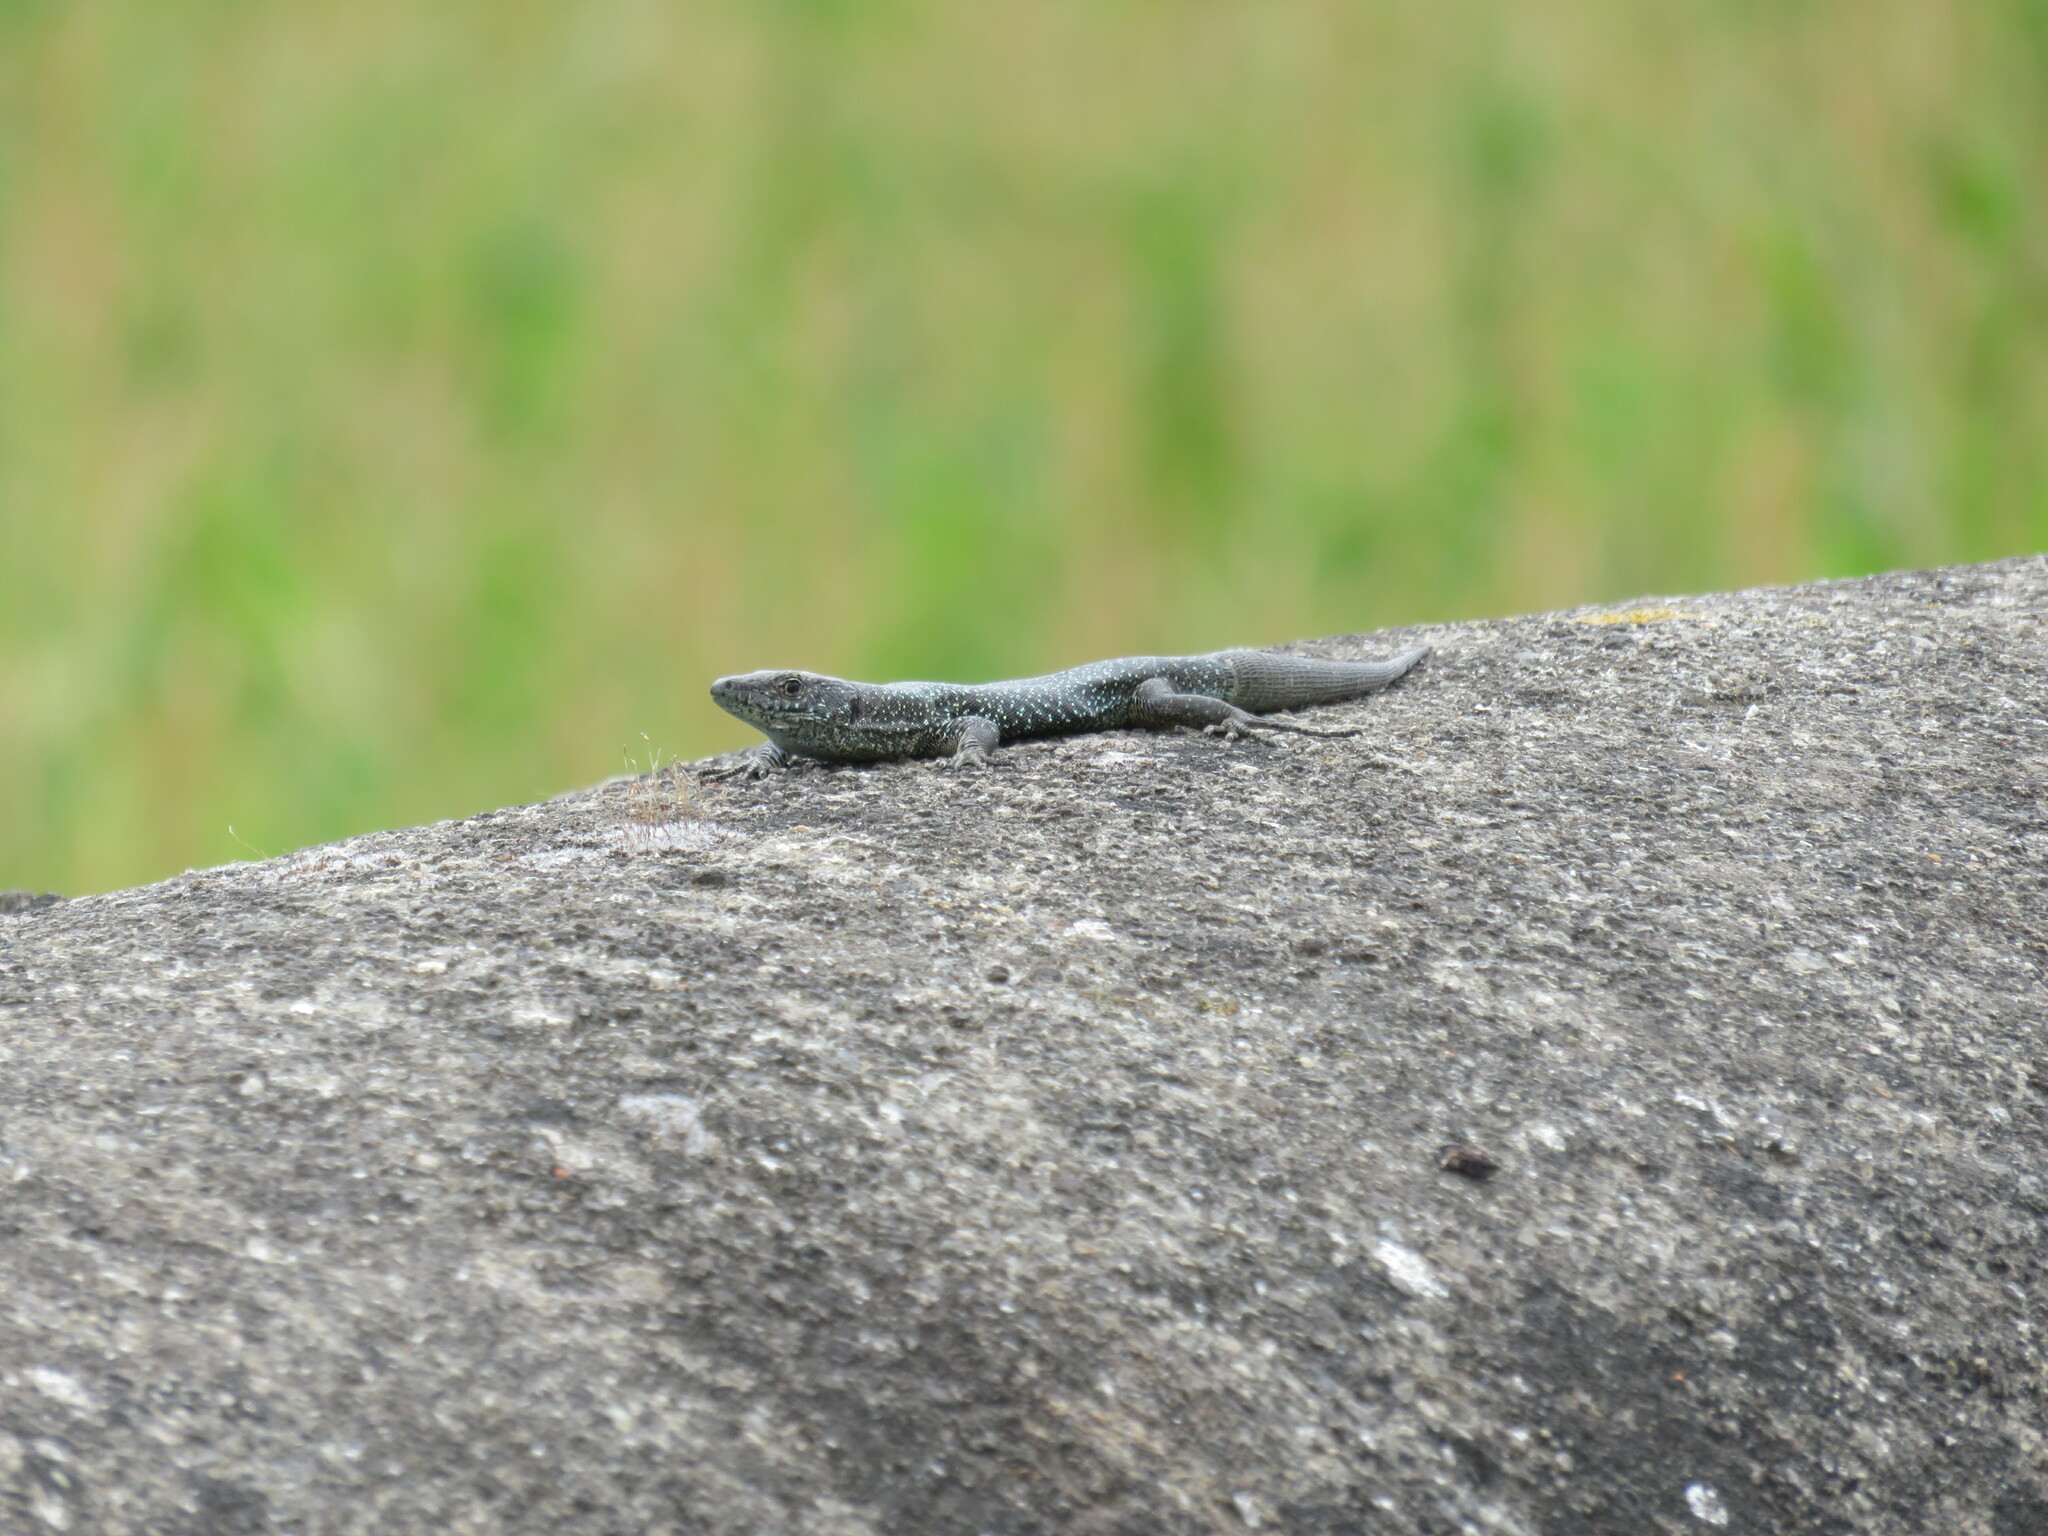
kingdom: Animalia
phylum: Chordata
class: Squamata
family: Lacertidae
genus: Teira
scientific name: Teira dugesii
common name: Madeira lizard
